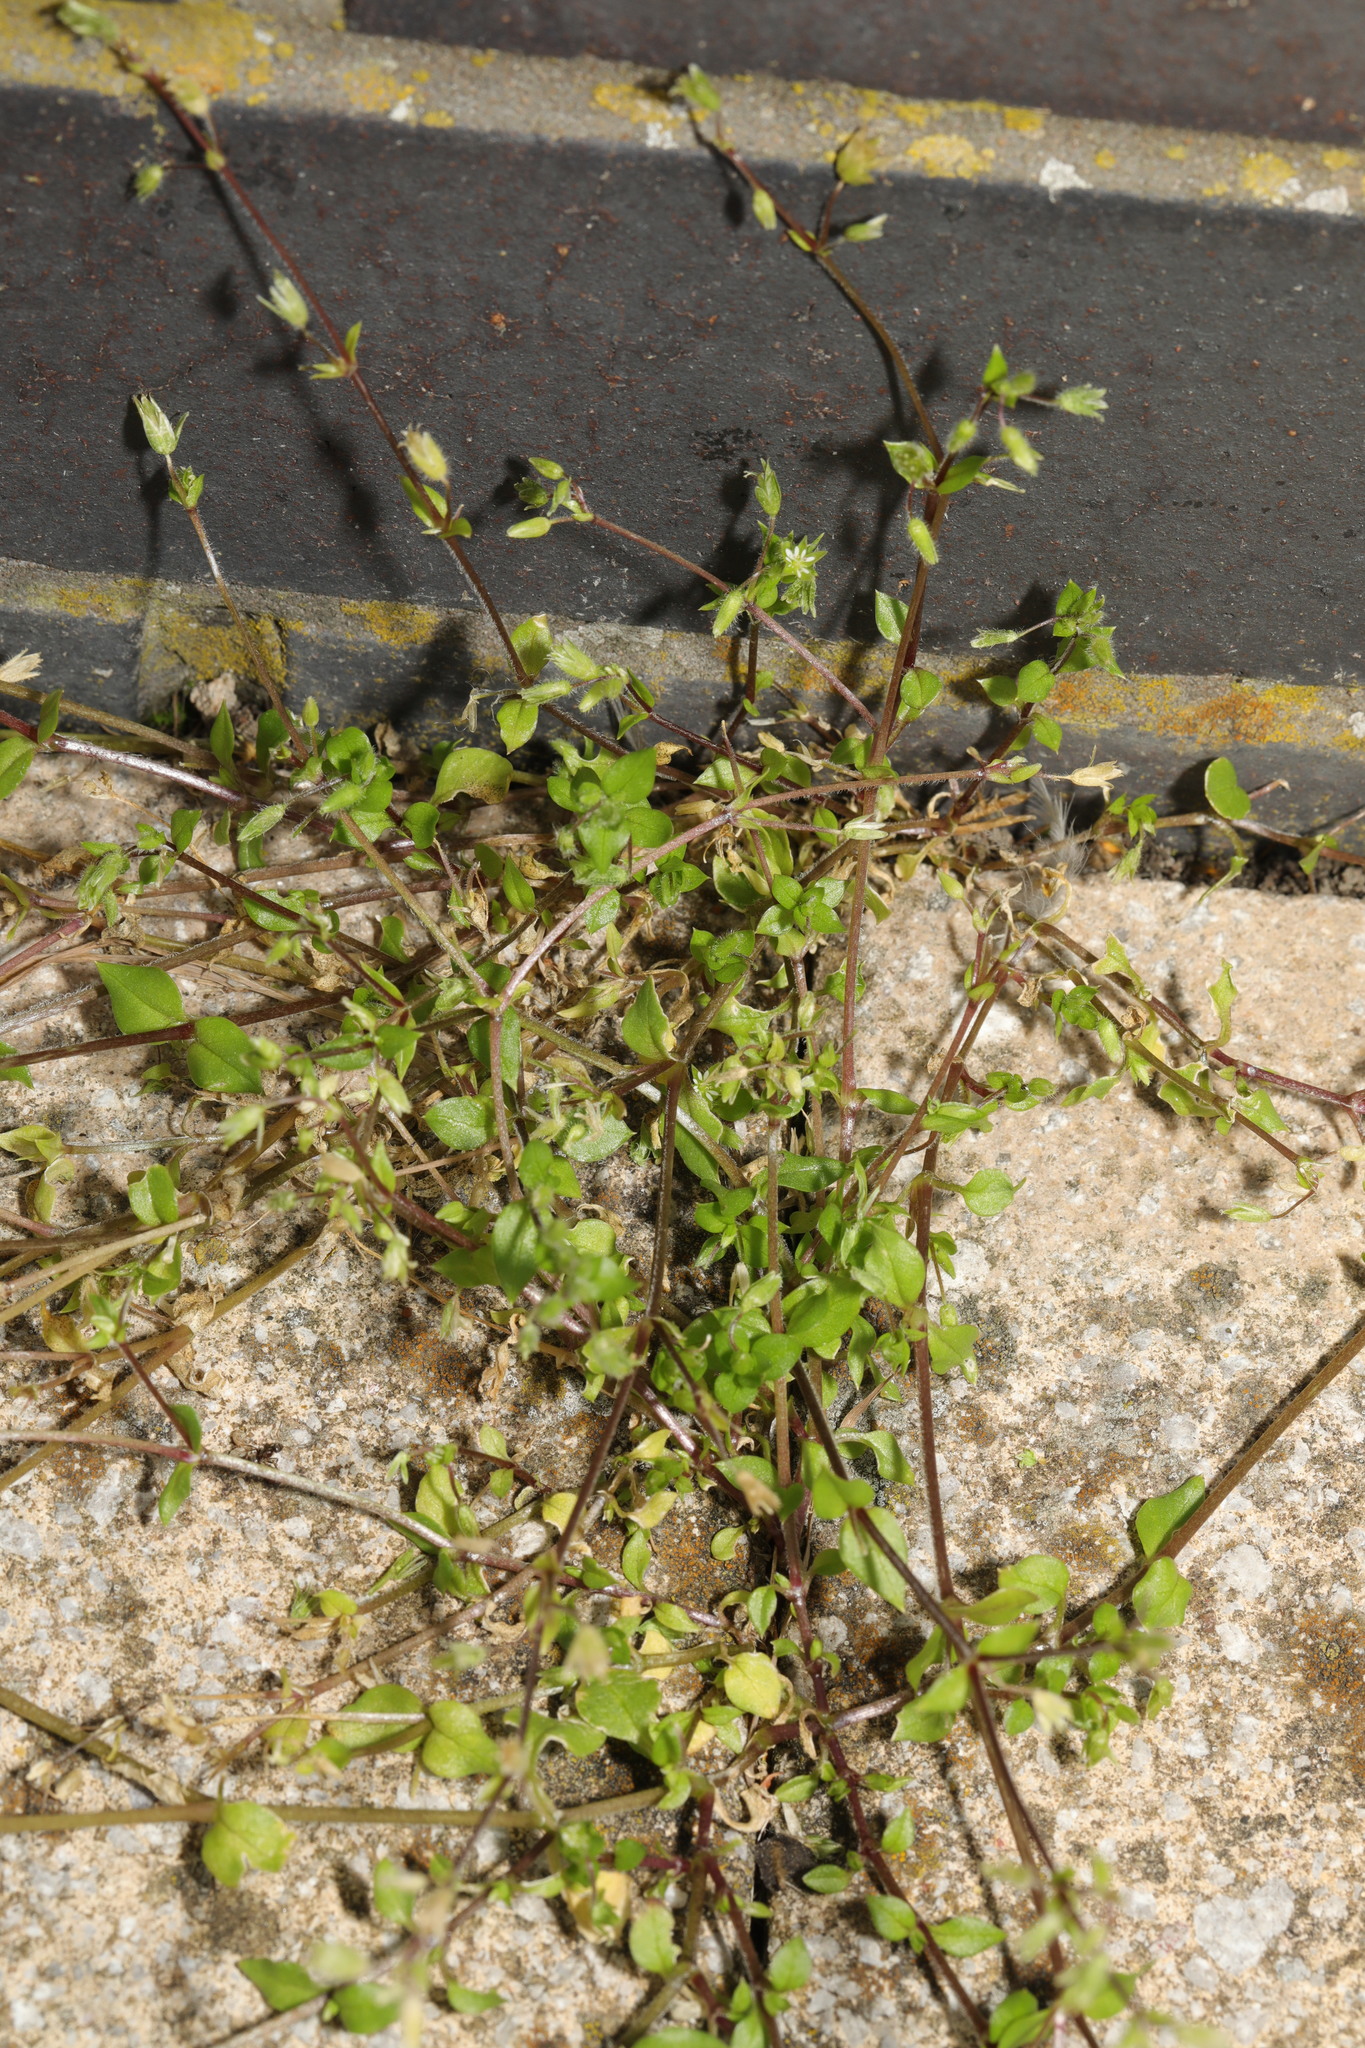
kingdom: Plantae
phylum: Tracheophyta
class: Magnoliopsida
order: Caryophyllales
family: Caryophyllaceae
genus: Stellaria
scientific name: Stellaria media
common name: Common chickweed
